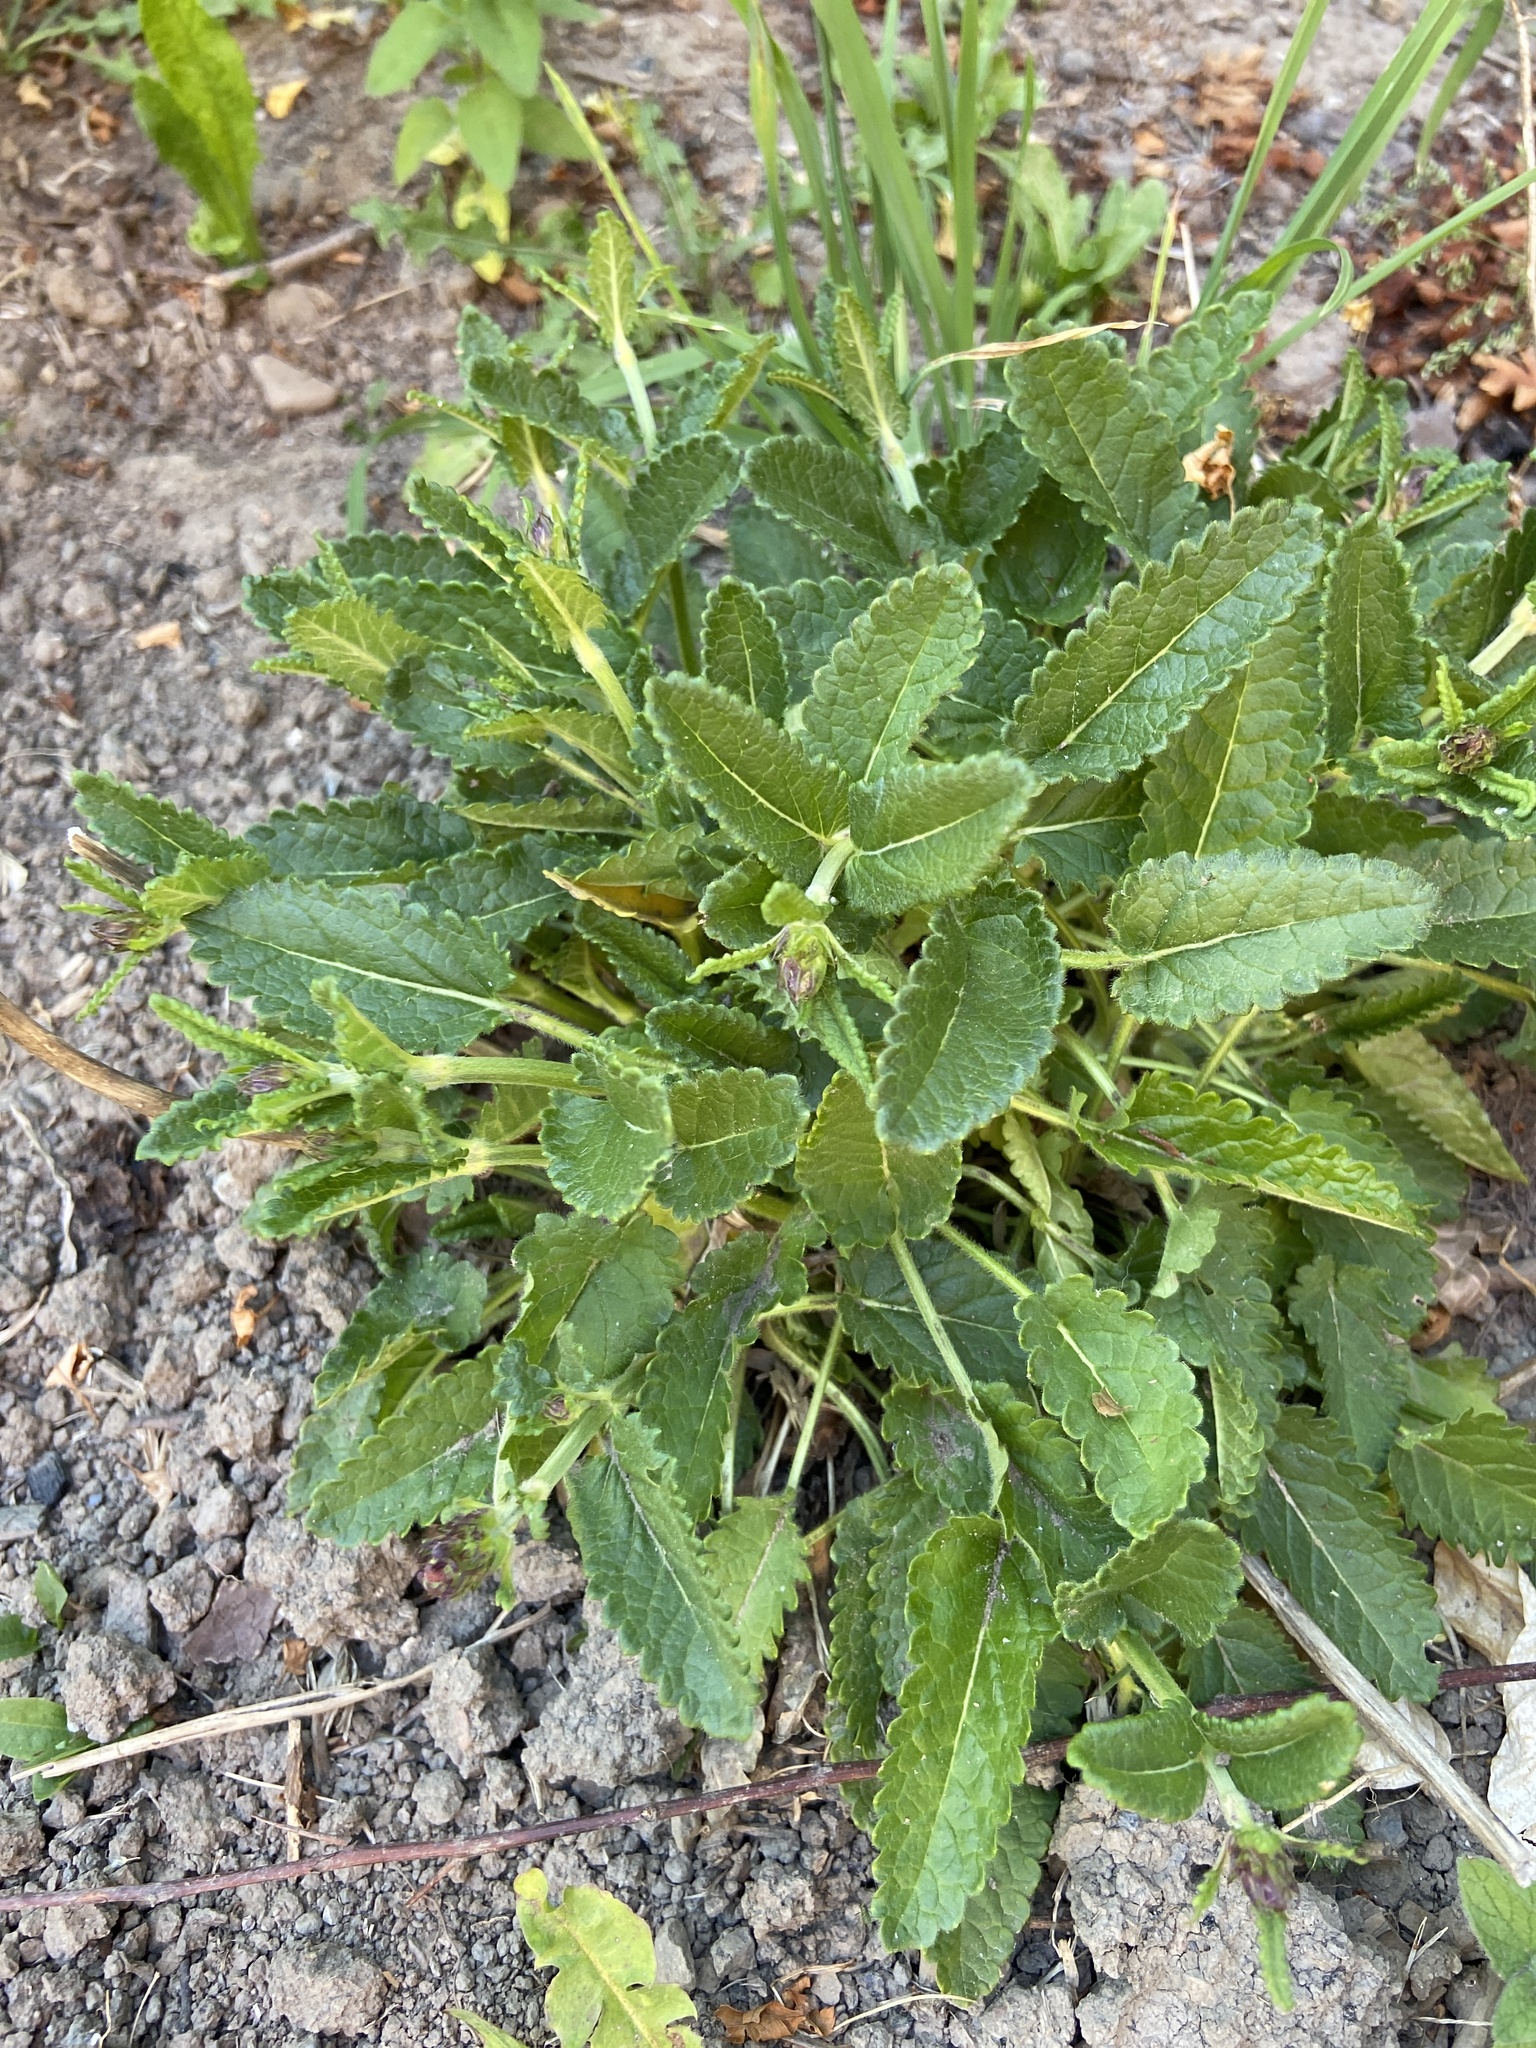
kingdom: Plantae
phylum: Tracheophyta
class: Magnoliopsida
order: Lamiales
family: Lamiaceae
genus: Betonica
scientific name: Betonica officinalis
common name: Bishop's-wort
